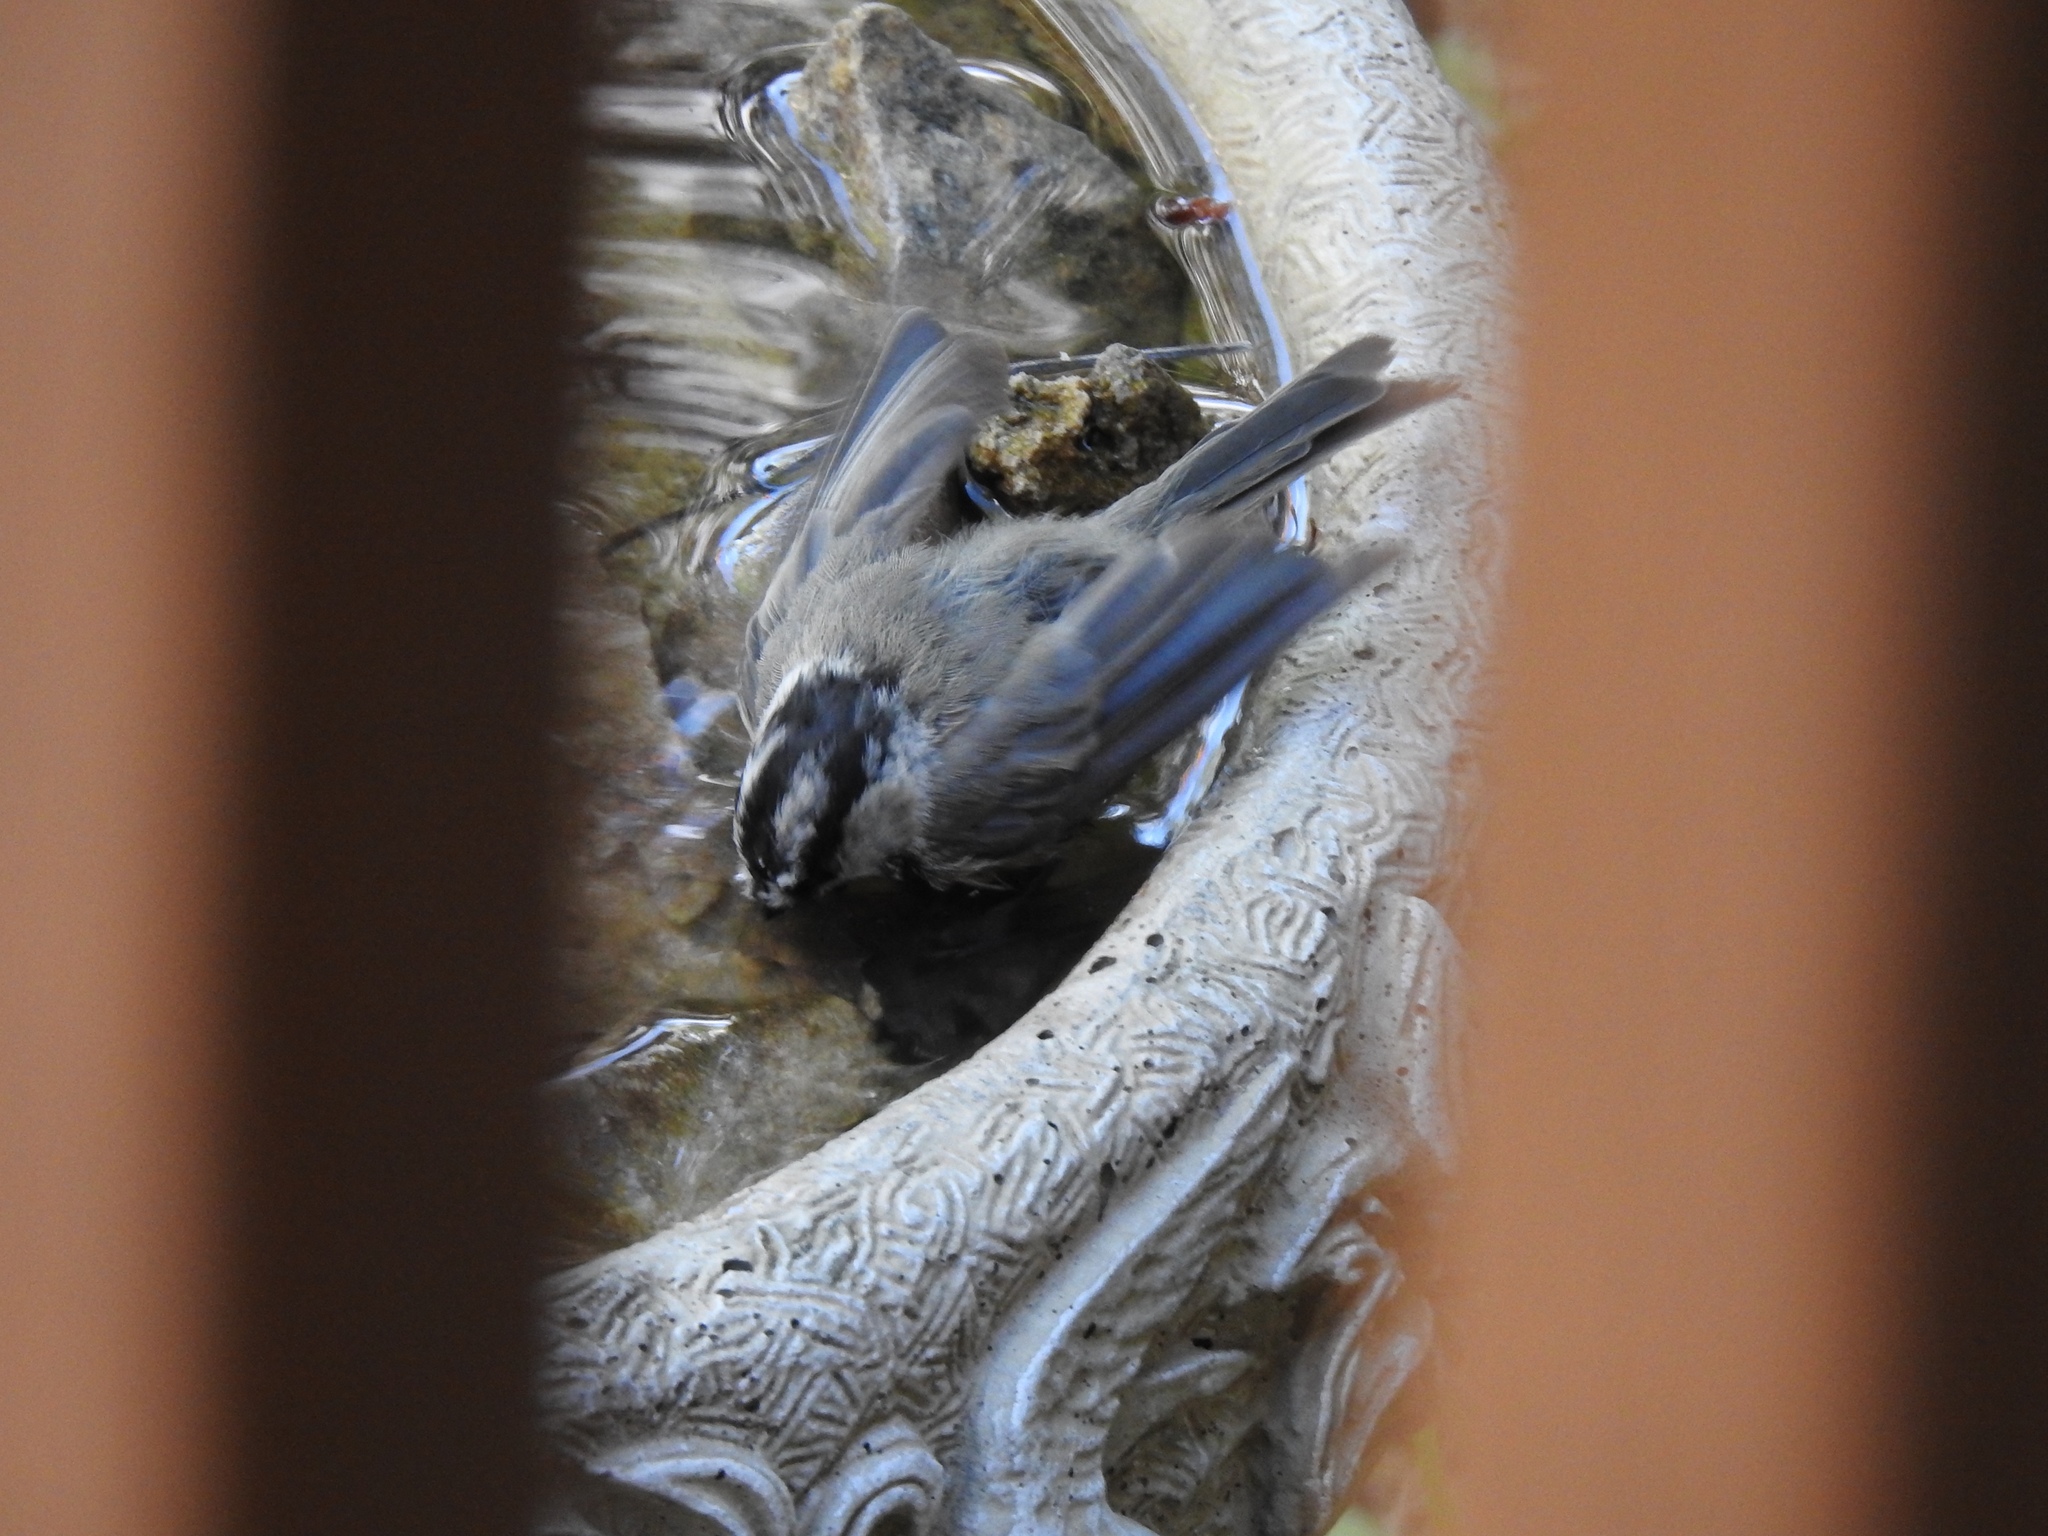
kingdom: Animalia
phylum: Chordata
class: Aves
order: Passeriformes
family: Paridae
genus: Poecile
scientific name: Poecile gambeli
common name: Mountain chickadee
